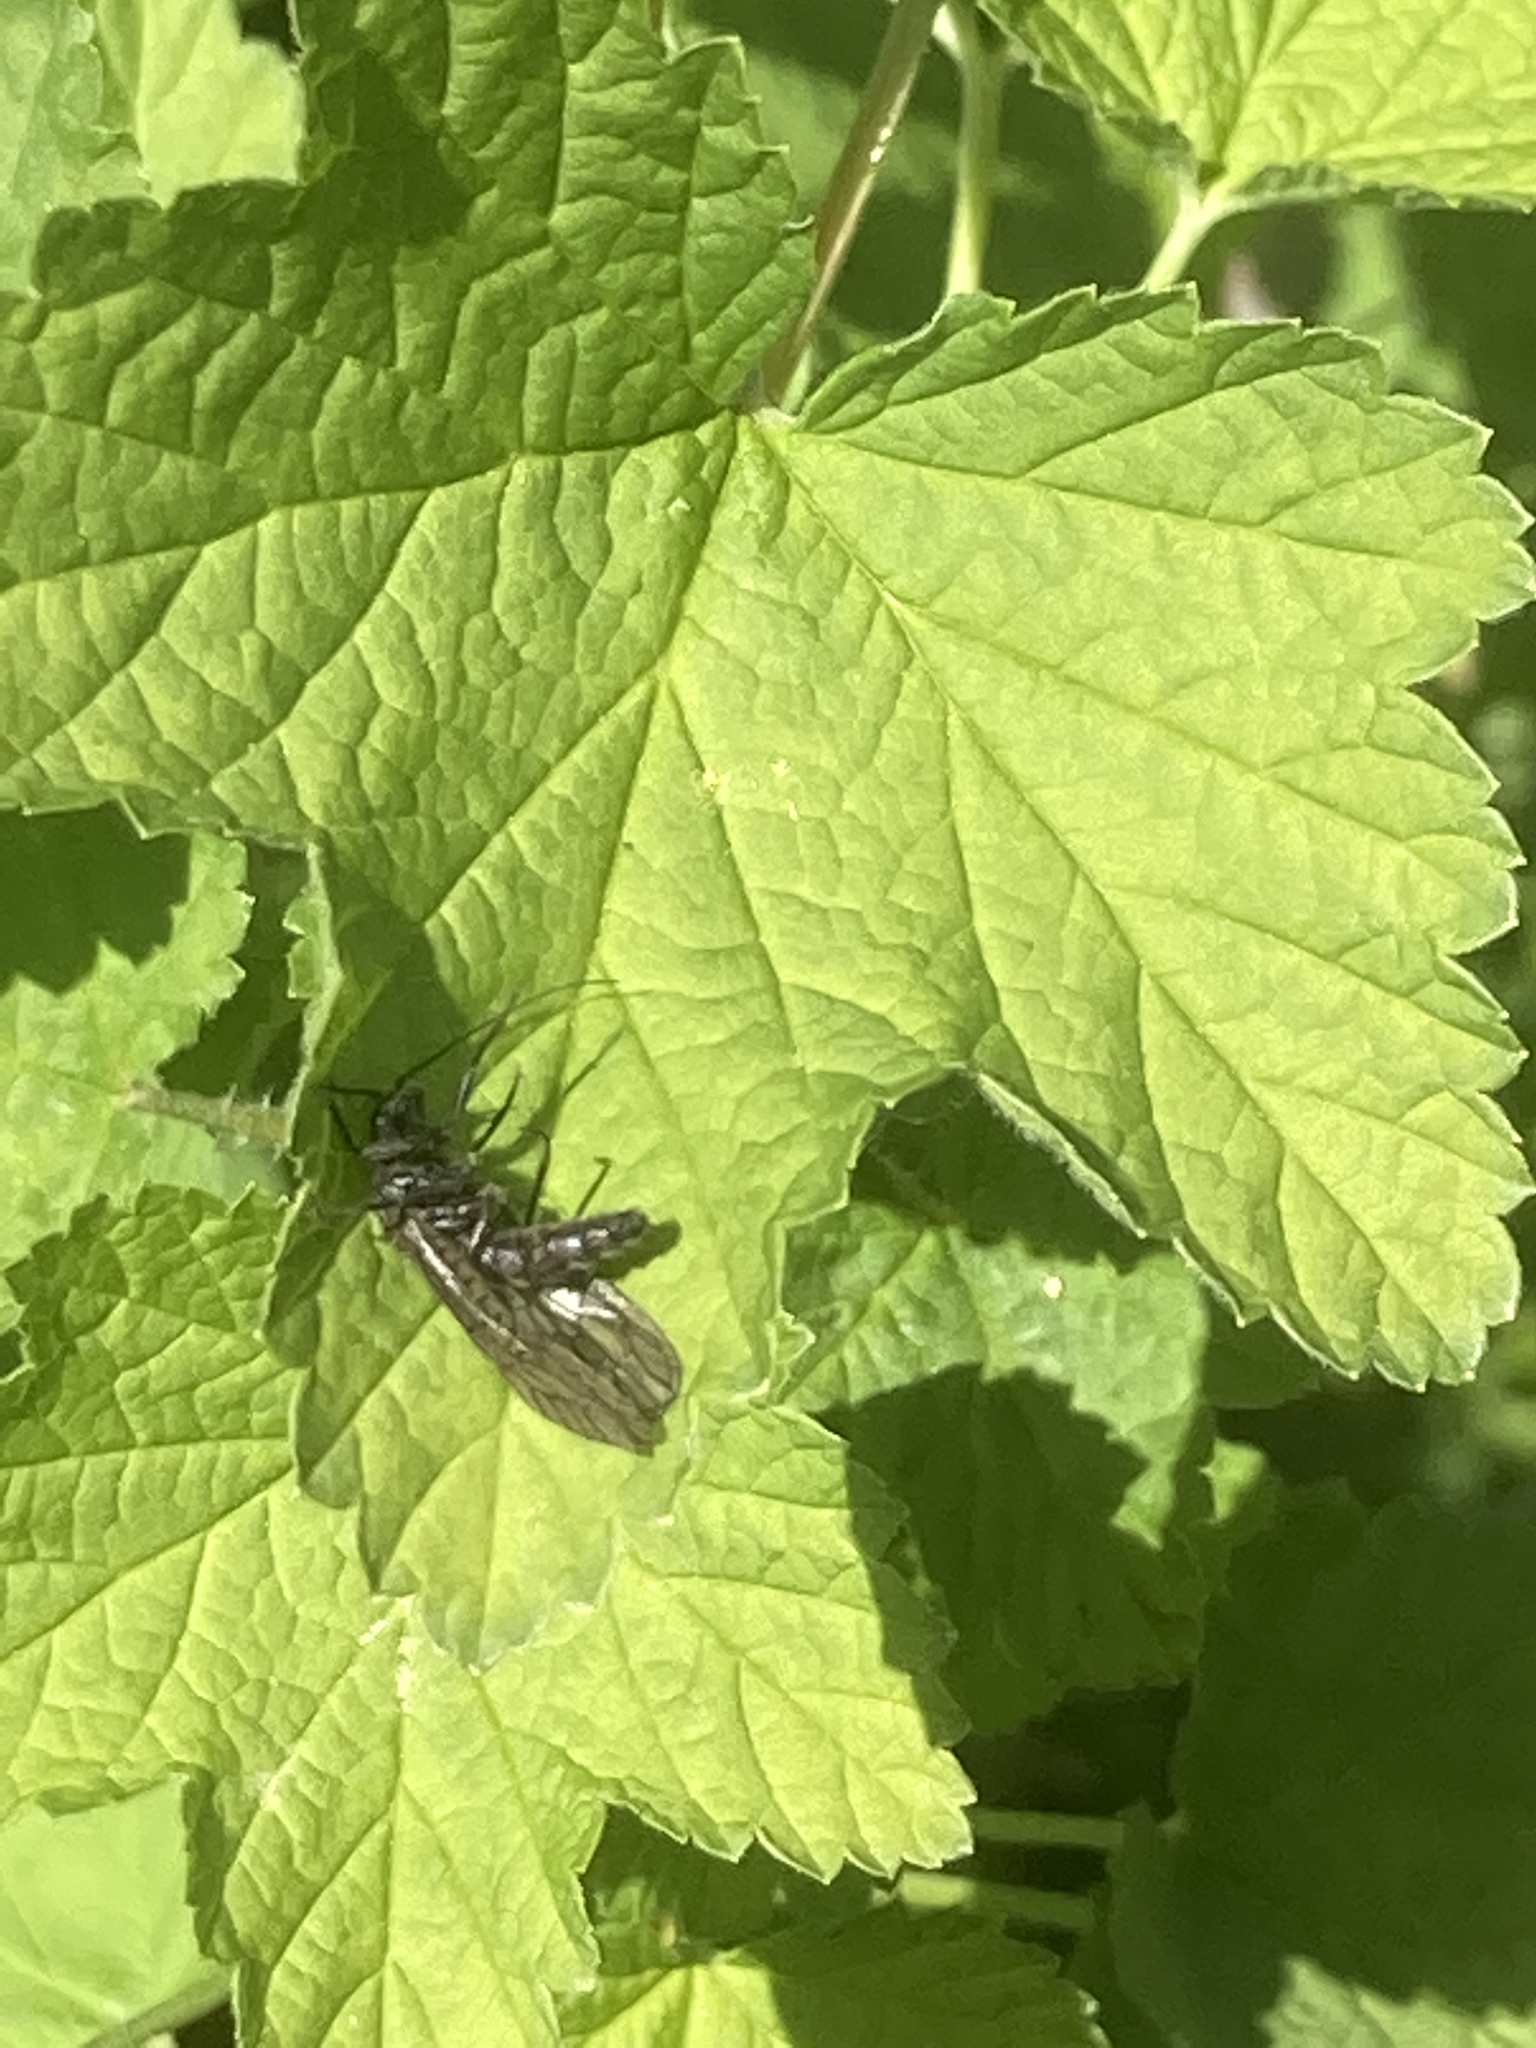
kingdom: Animalia
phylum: Arthropoda
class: Insecta
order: Megaloptera
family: Sialidae
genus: Sialis
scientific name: Sialis
